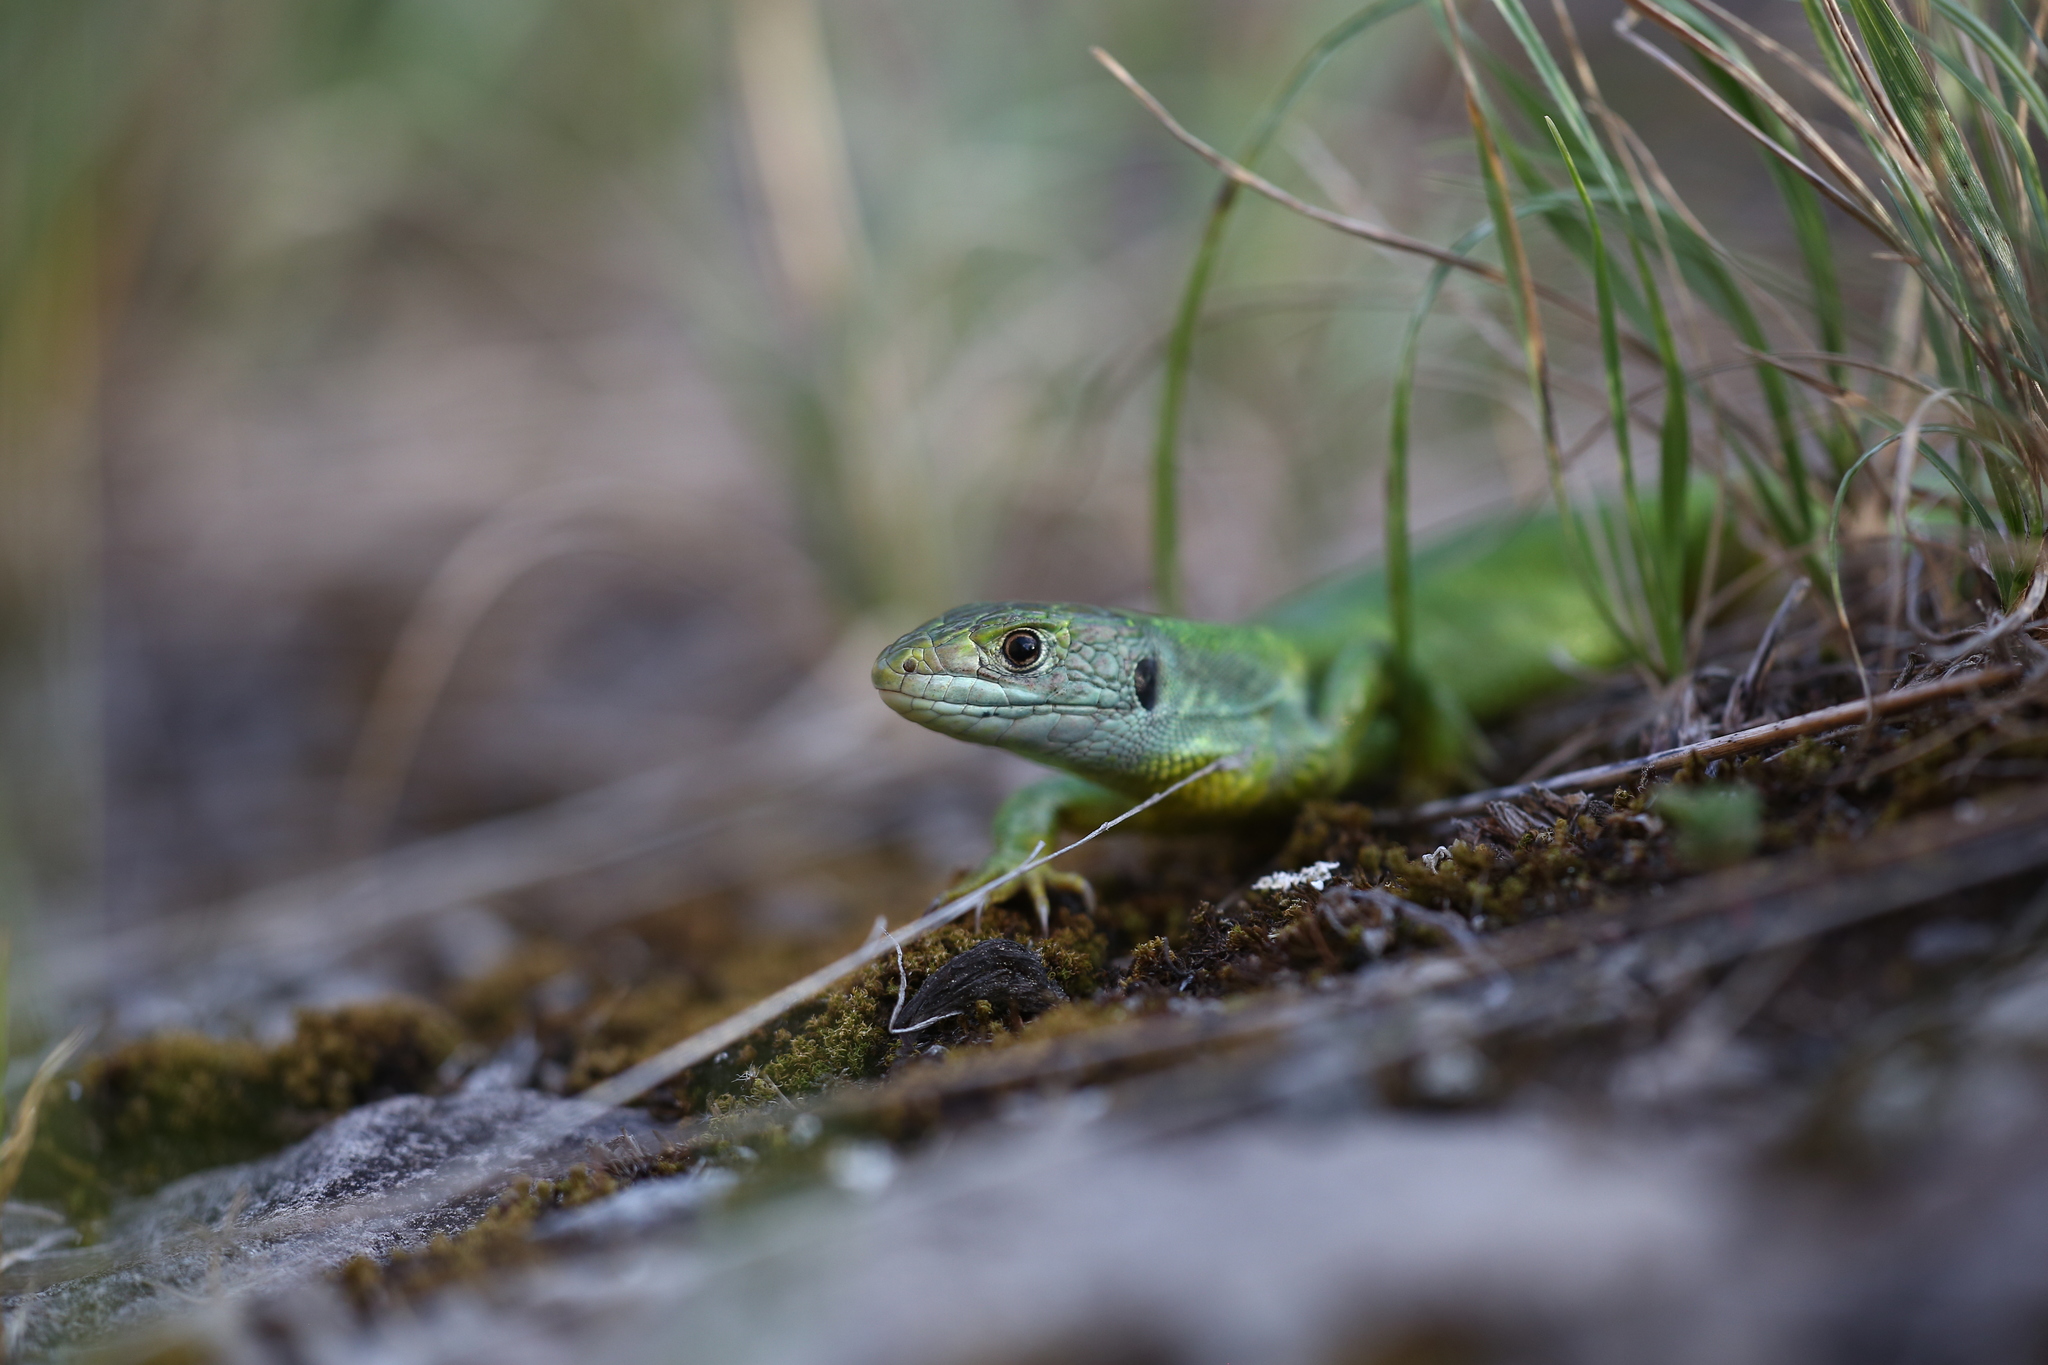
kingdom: Animalia
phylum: Chordata
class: Squamata
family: Lacertidae
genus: Lacerta
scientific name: Lacerta bilineata
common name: Western green lizard
